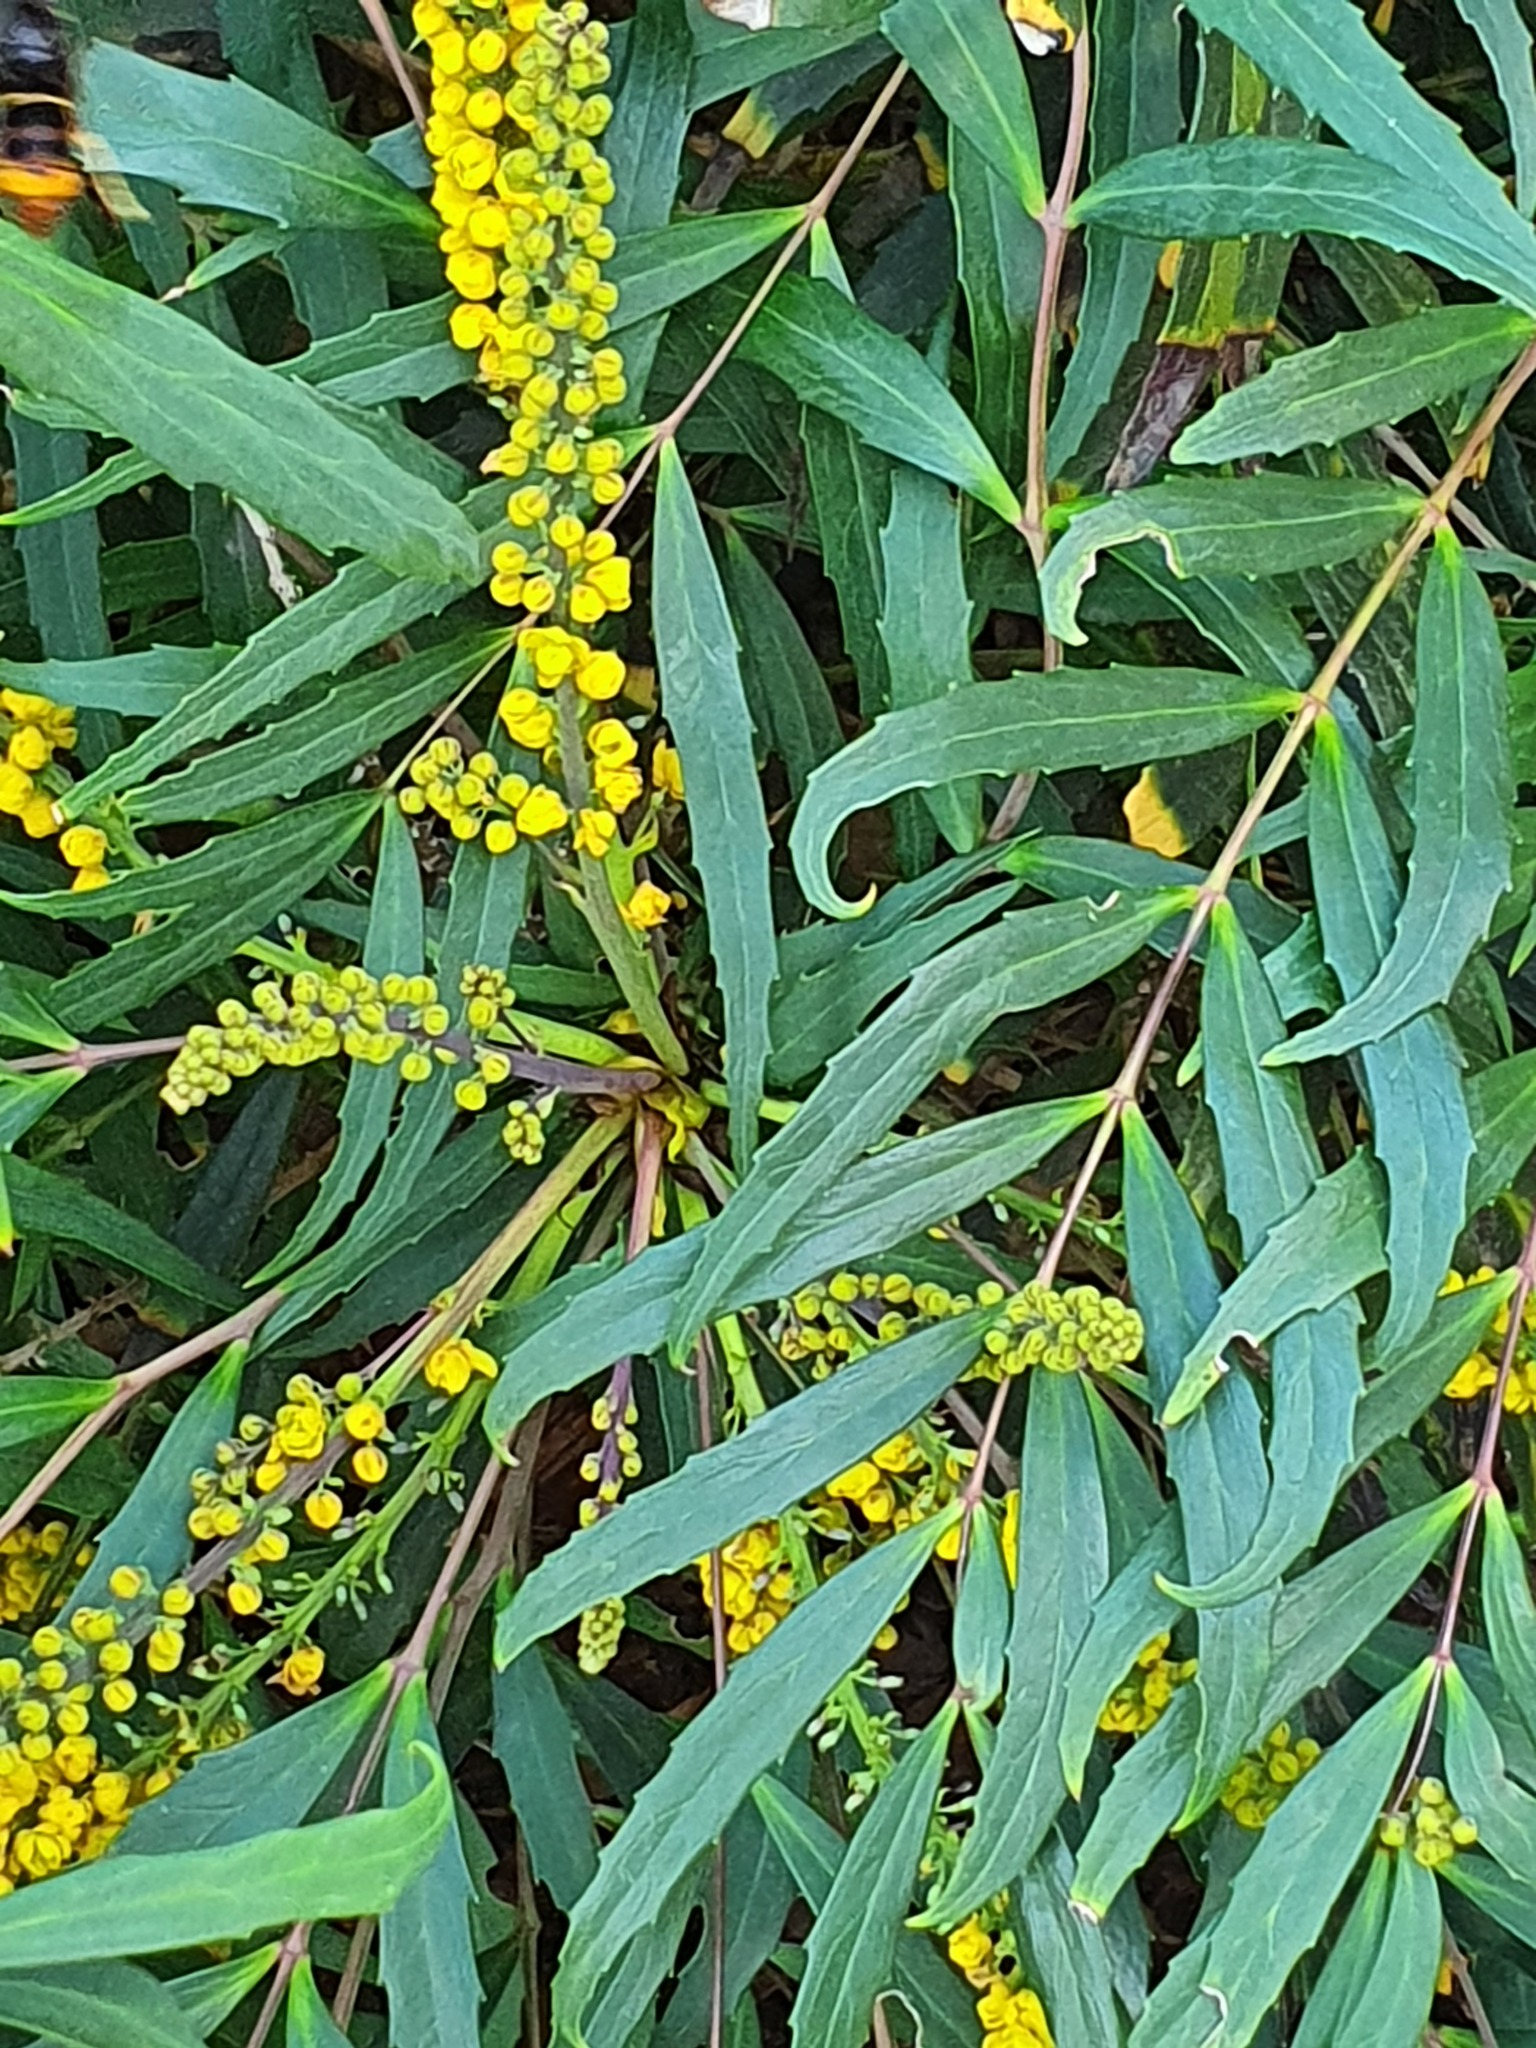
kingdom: Animalia
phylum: Arthropoda
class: Insecta
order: Hymenoptera
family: Vespidae
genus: Vespa
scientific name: Vespa velutina
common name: Asian hornet
